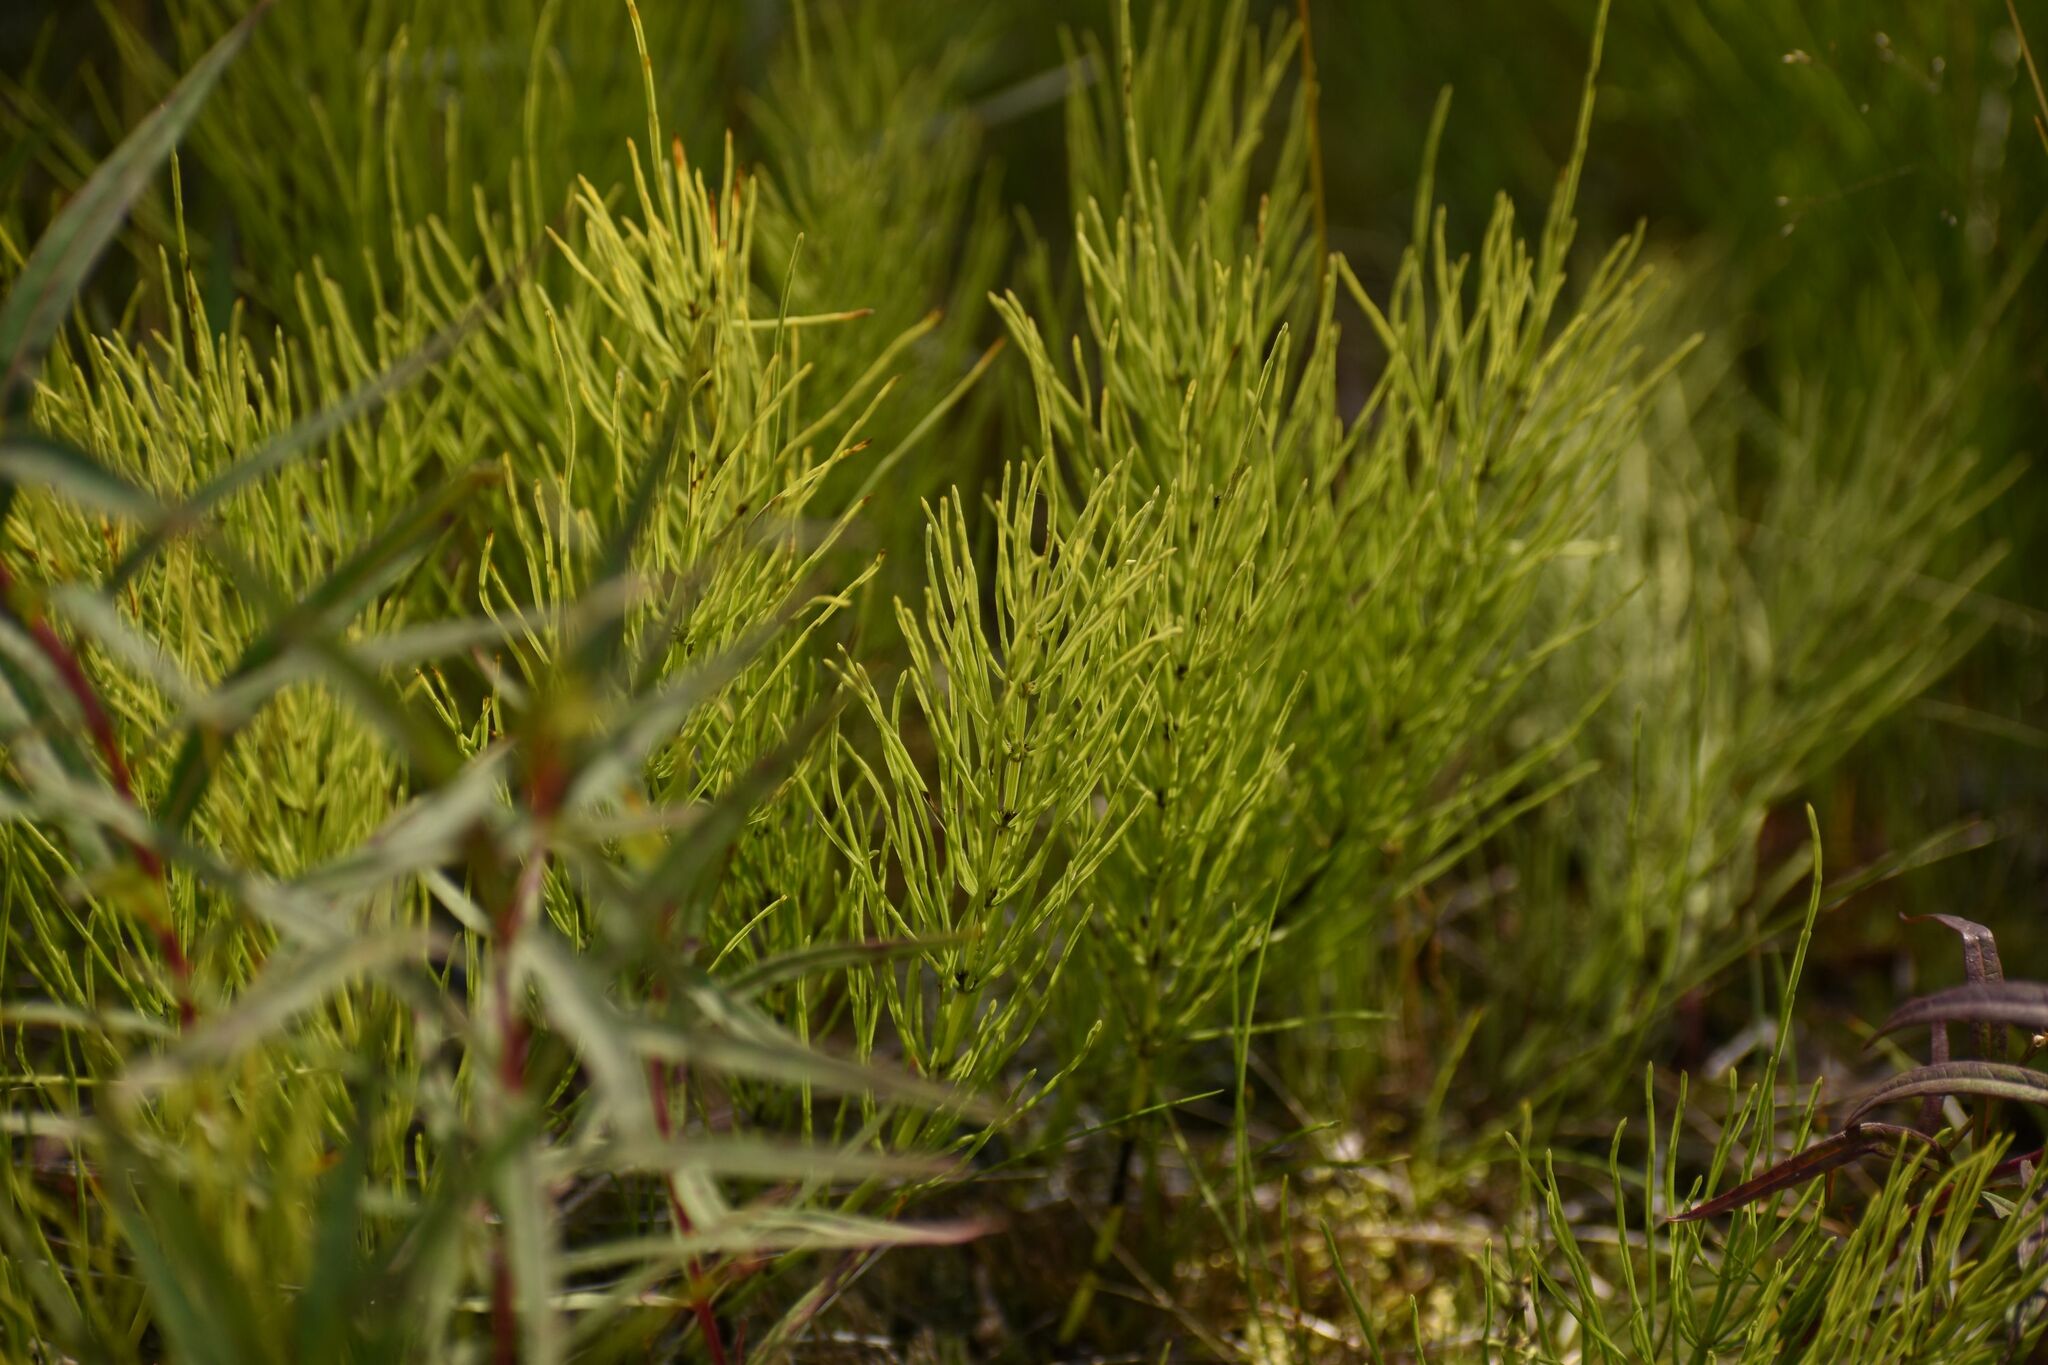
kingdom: Plantae
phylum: Tracheophyta
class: Polypodiopsida
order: Equisetales
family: Equisetaceae
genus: Equisetum
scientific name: Equisetum arvense
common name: Field horsetail
